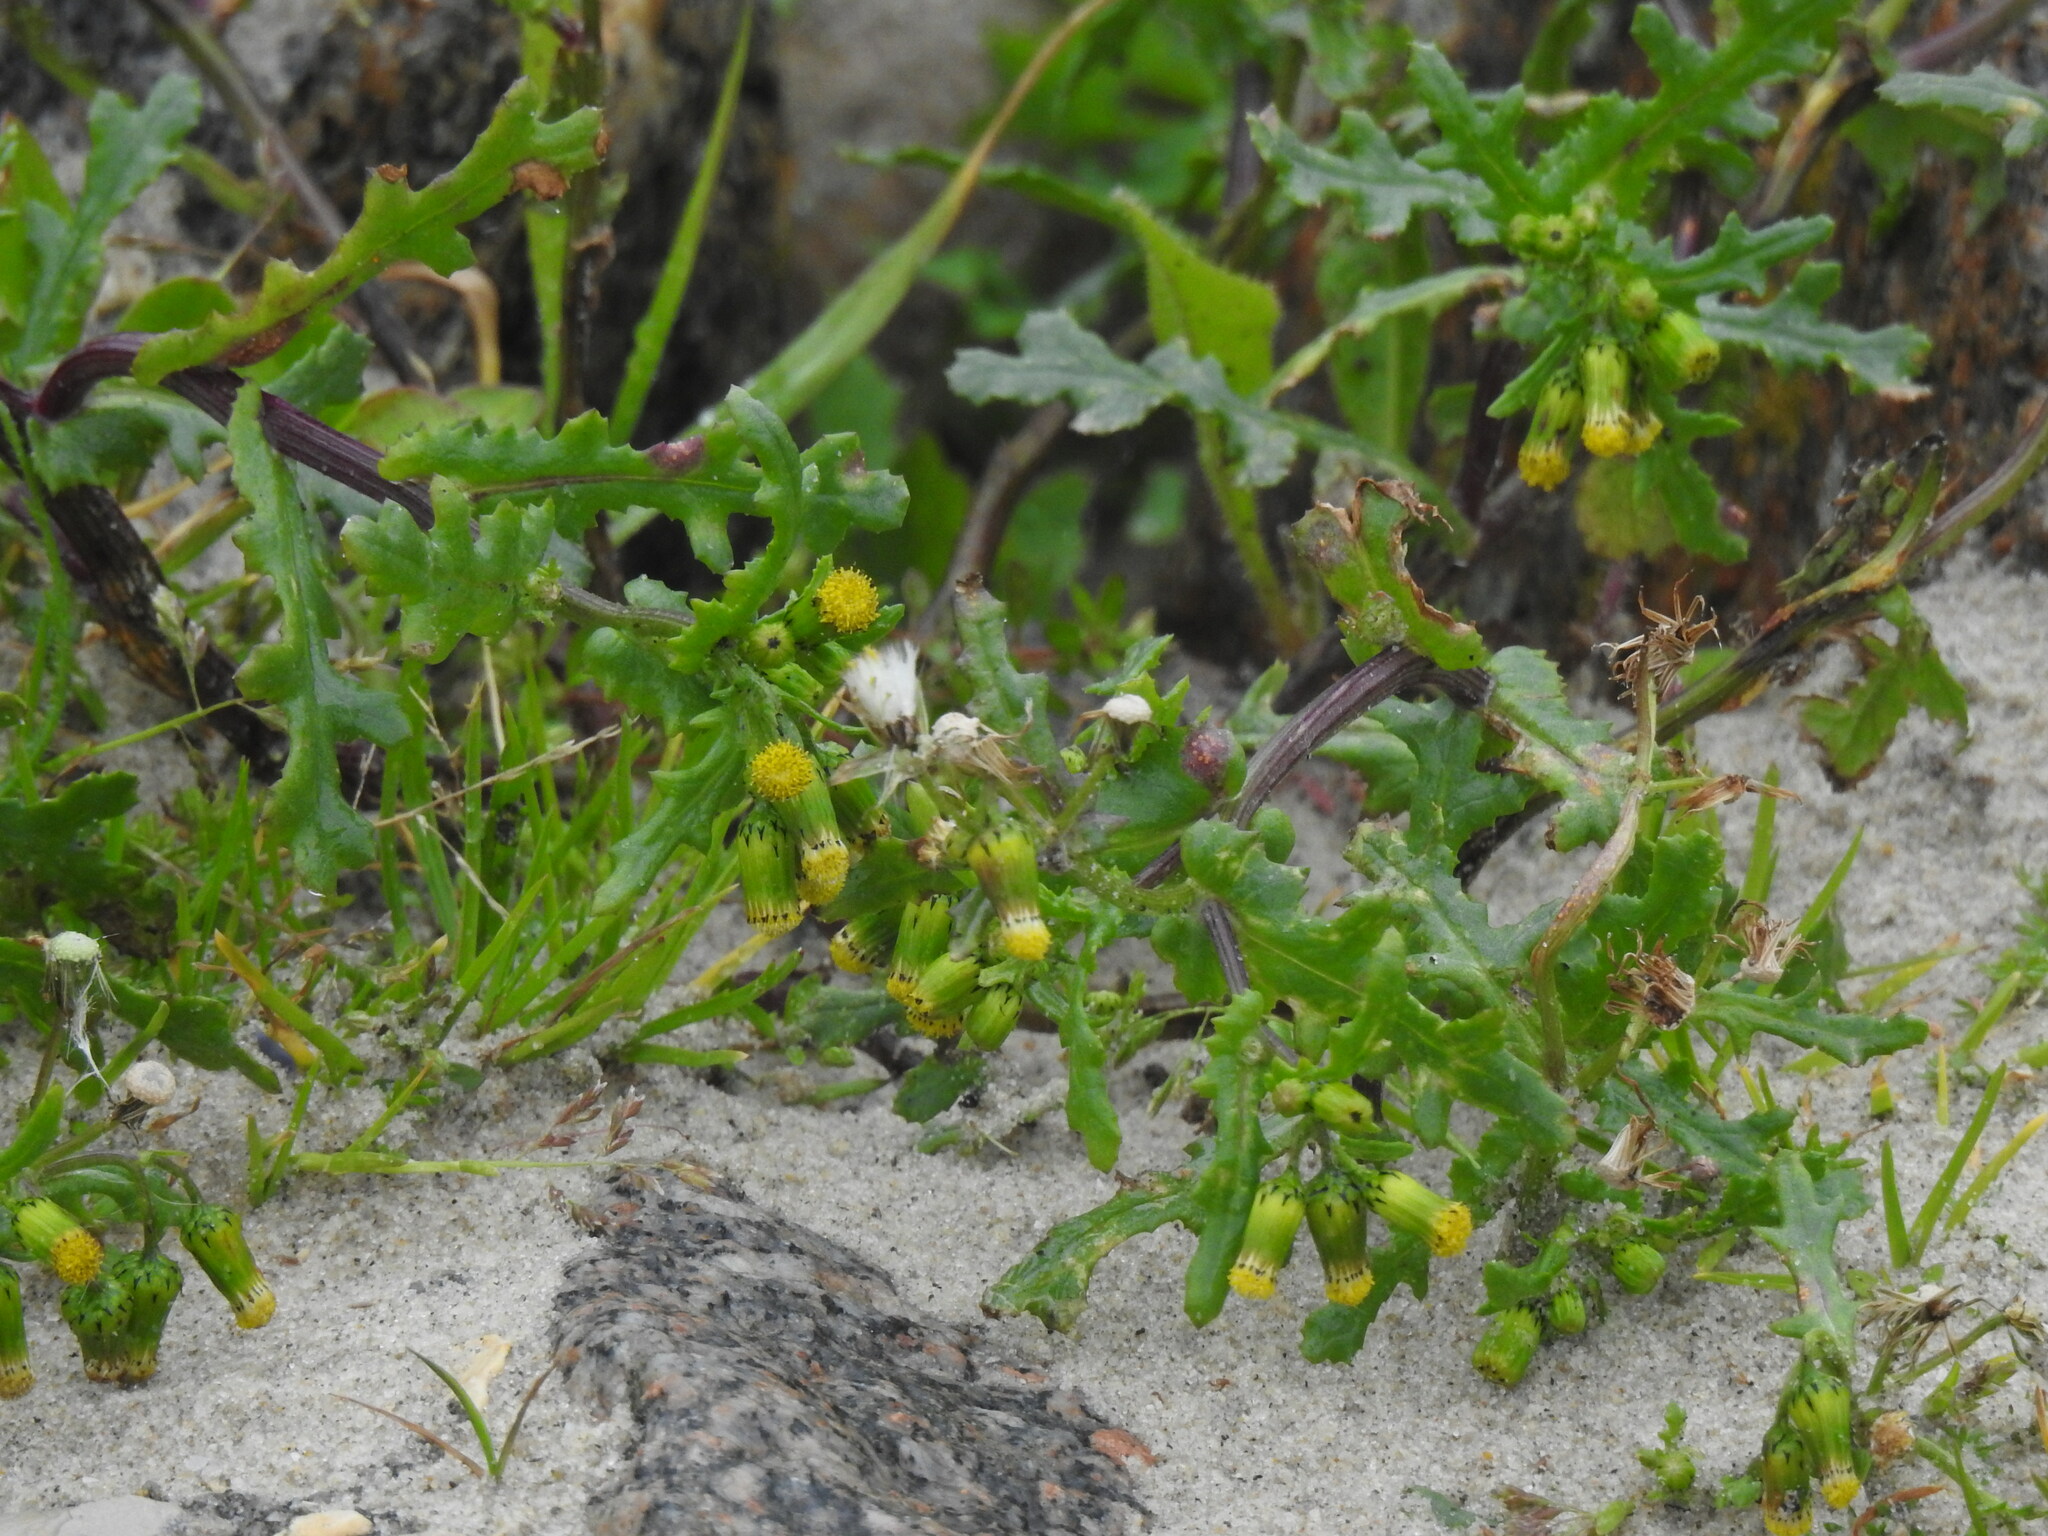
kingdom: Plantae
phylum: Tracheophyta
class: Magnoliopsida
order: Asterales
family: Asteraceae
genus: Senecio
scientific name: Senecio vulgaris
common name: Old-man-in-the-spring
